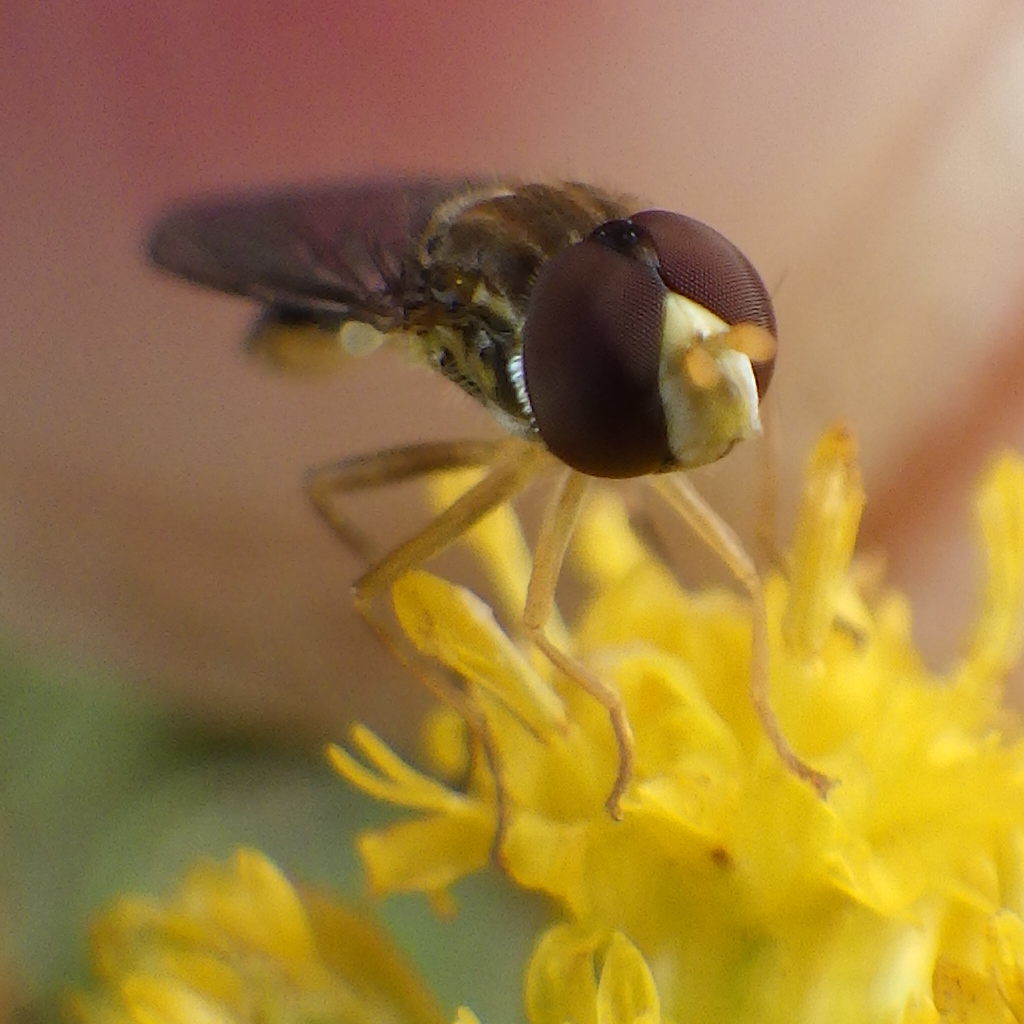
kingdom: Animalia
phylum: Arthropoda
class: Insecta
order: Diptera
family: Syrphidae
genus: Toxomerus
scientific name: Toxomerus marginatus
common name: Syrphid fly
